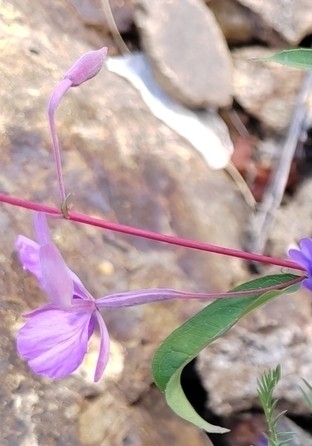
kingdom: Plantae
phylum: Tracheophyta
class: Magnoliopsida
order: Myrtales
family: Onagraceae
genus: Chamaenerion
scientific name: Chamaenerion angustifolium
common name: Fireweed
